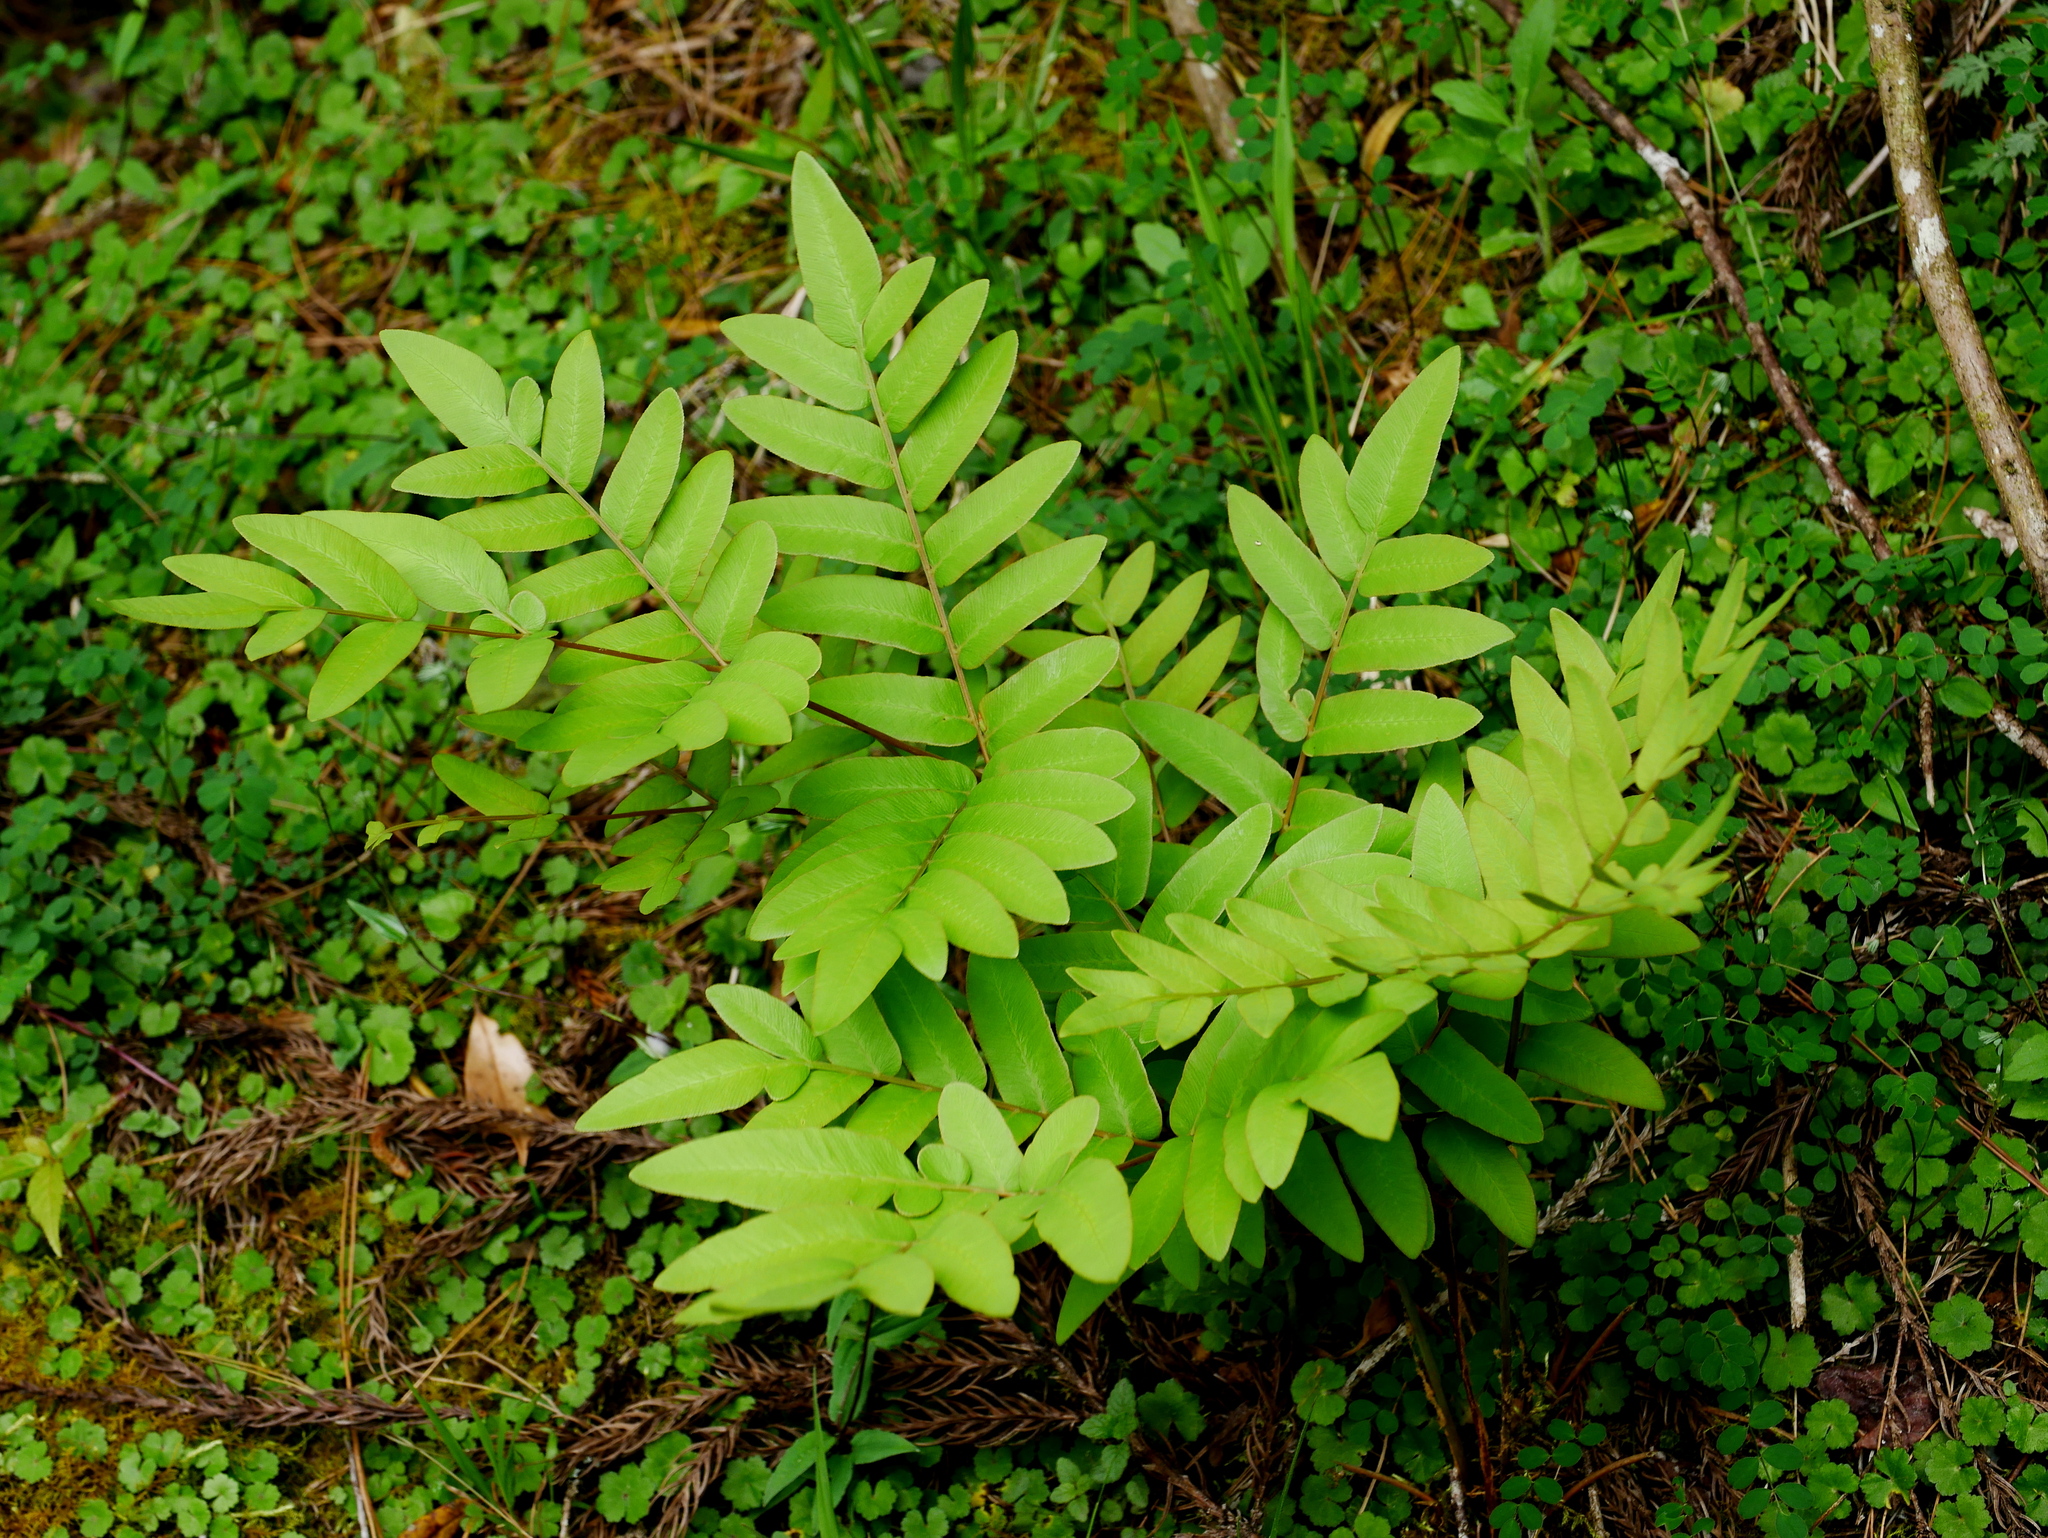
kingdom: Plantae
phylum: Tracheophyta
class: Polypodiopsida
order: Osmundales
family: Osmundaceae
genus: Osmunda
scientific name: Osmunda japonica
